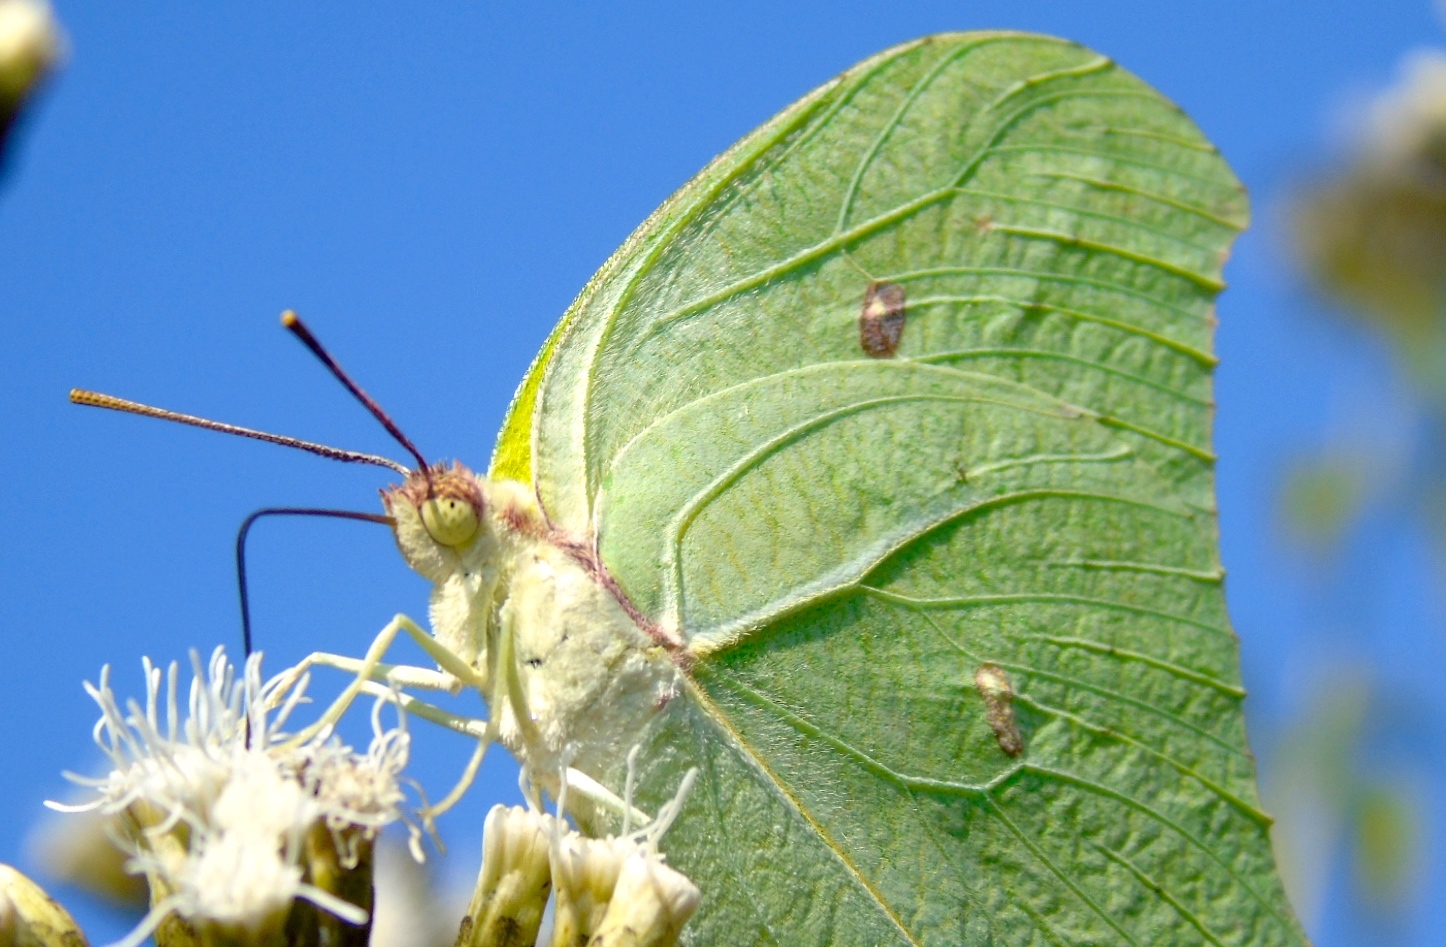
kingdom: Animalia
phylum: Arthropoda
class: Insecta
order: Lepidoptera
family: Pieridae
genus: Anteos
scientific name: Anteos maerula
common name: Angled sulphur
